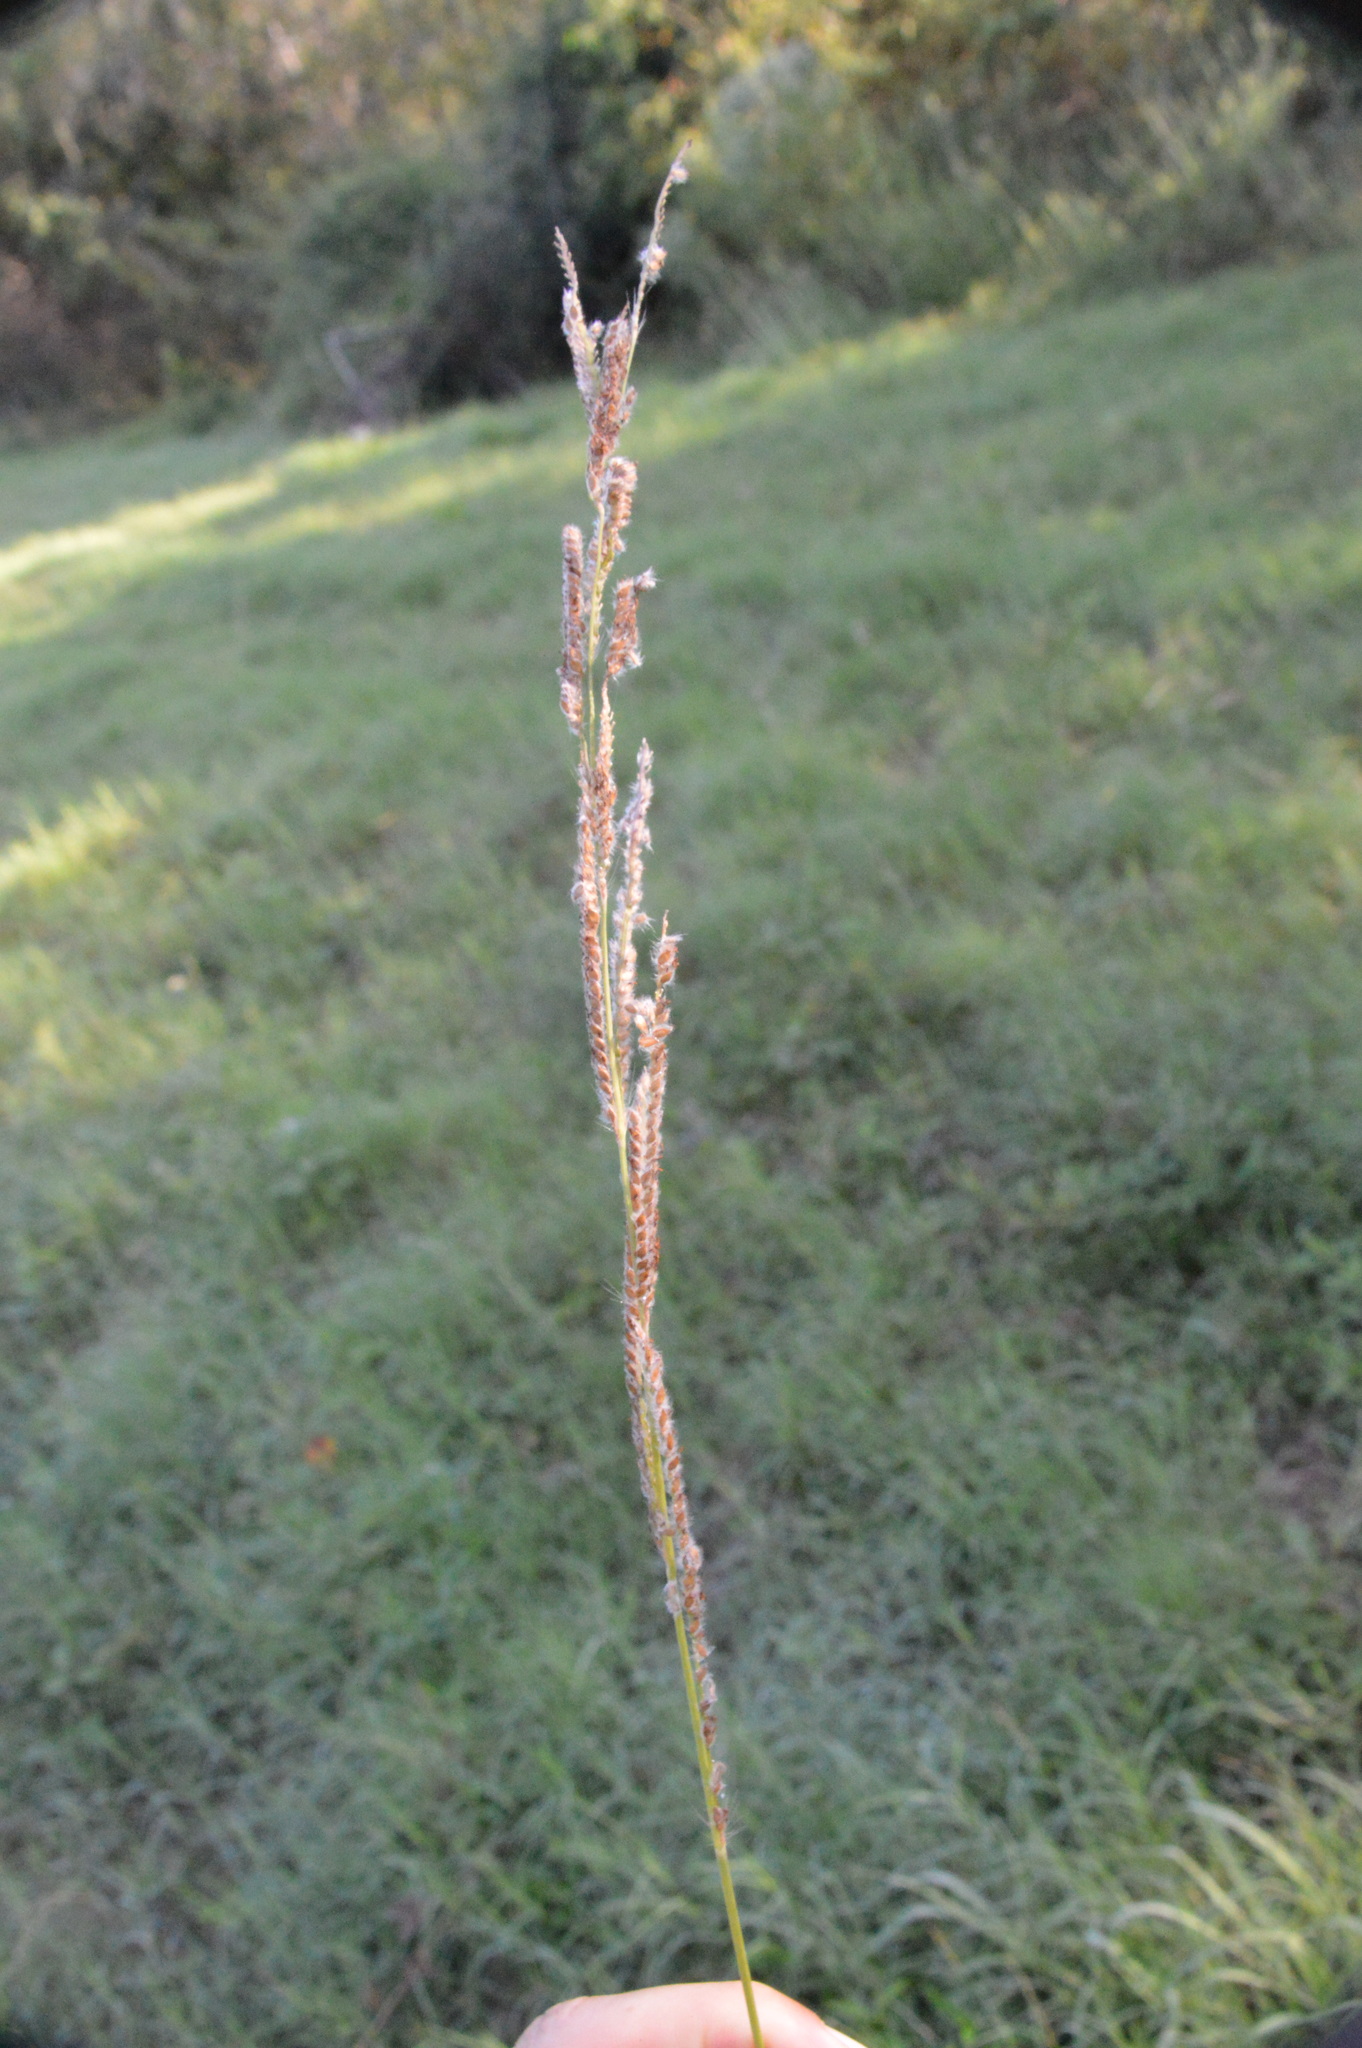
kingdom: Plantae
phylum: Tracheophyta
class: Liliopsida
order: Poales
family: Poaceae
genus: Paspalum
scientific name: Paspalum urvillei
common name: Vasey's grass
